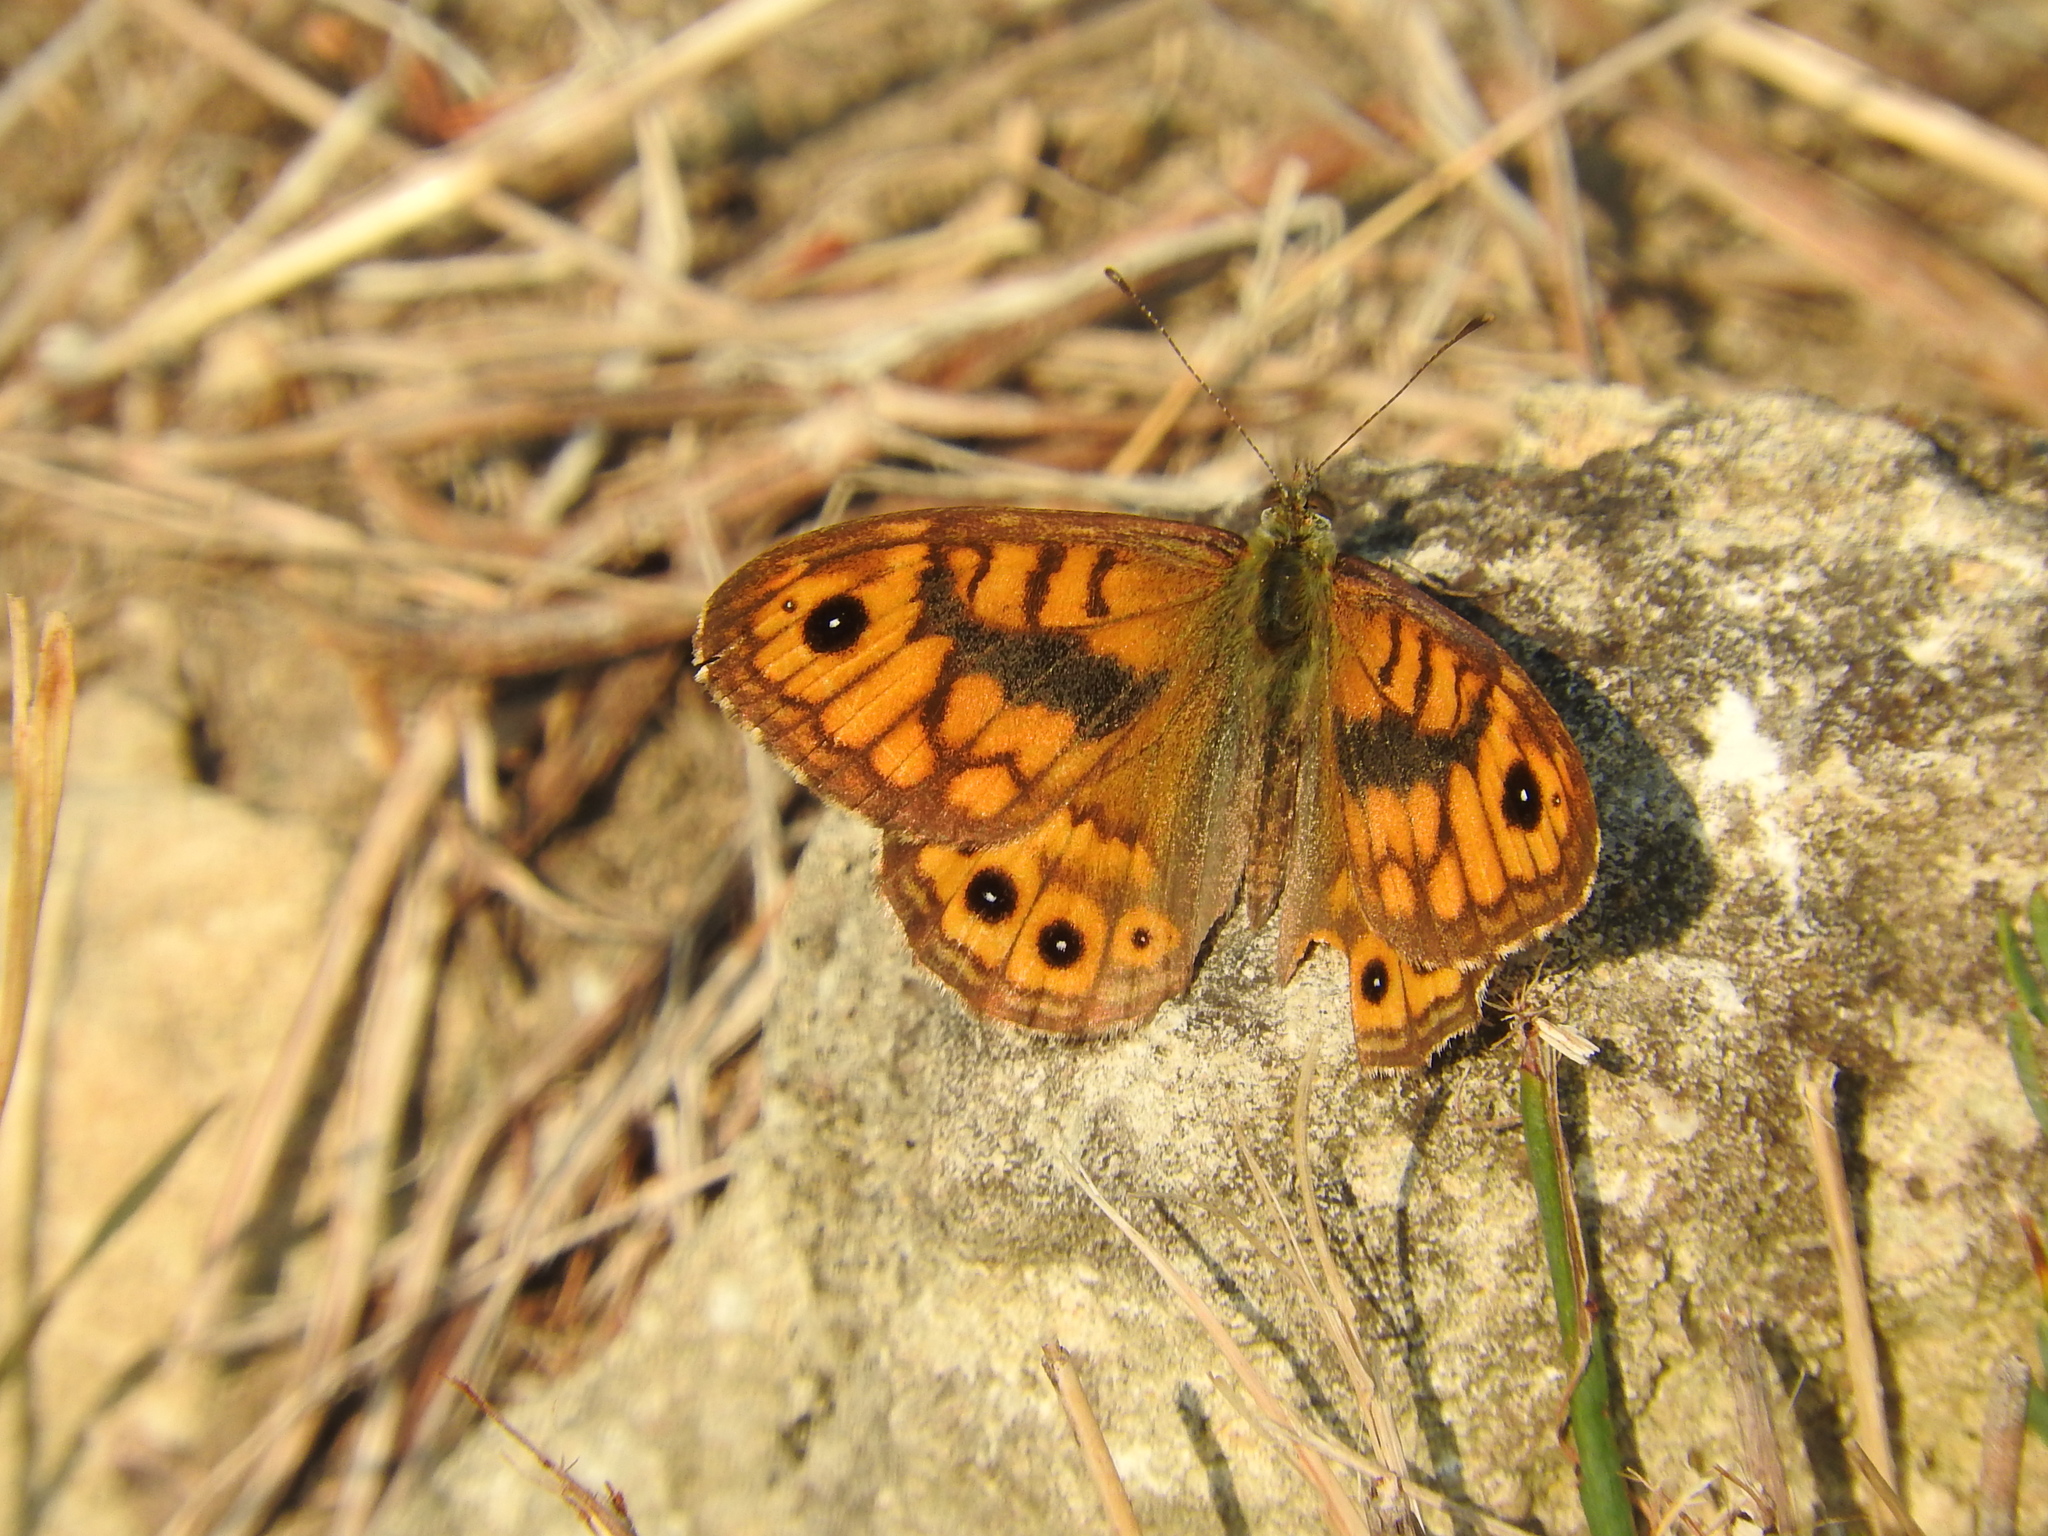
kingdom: Animalia
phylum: Arthropoda
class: Insecta
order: Lepidoptera
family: Nymphalidae
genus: Pararge
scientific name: Pararge Lasiommata megera
